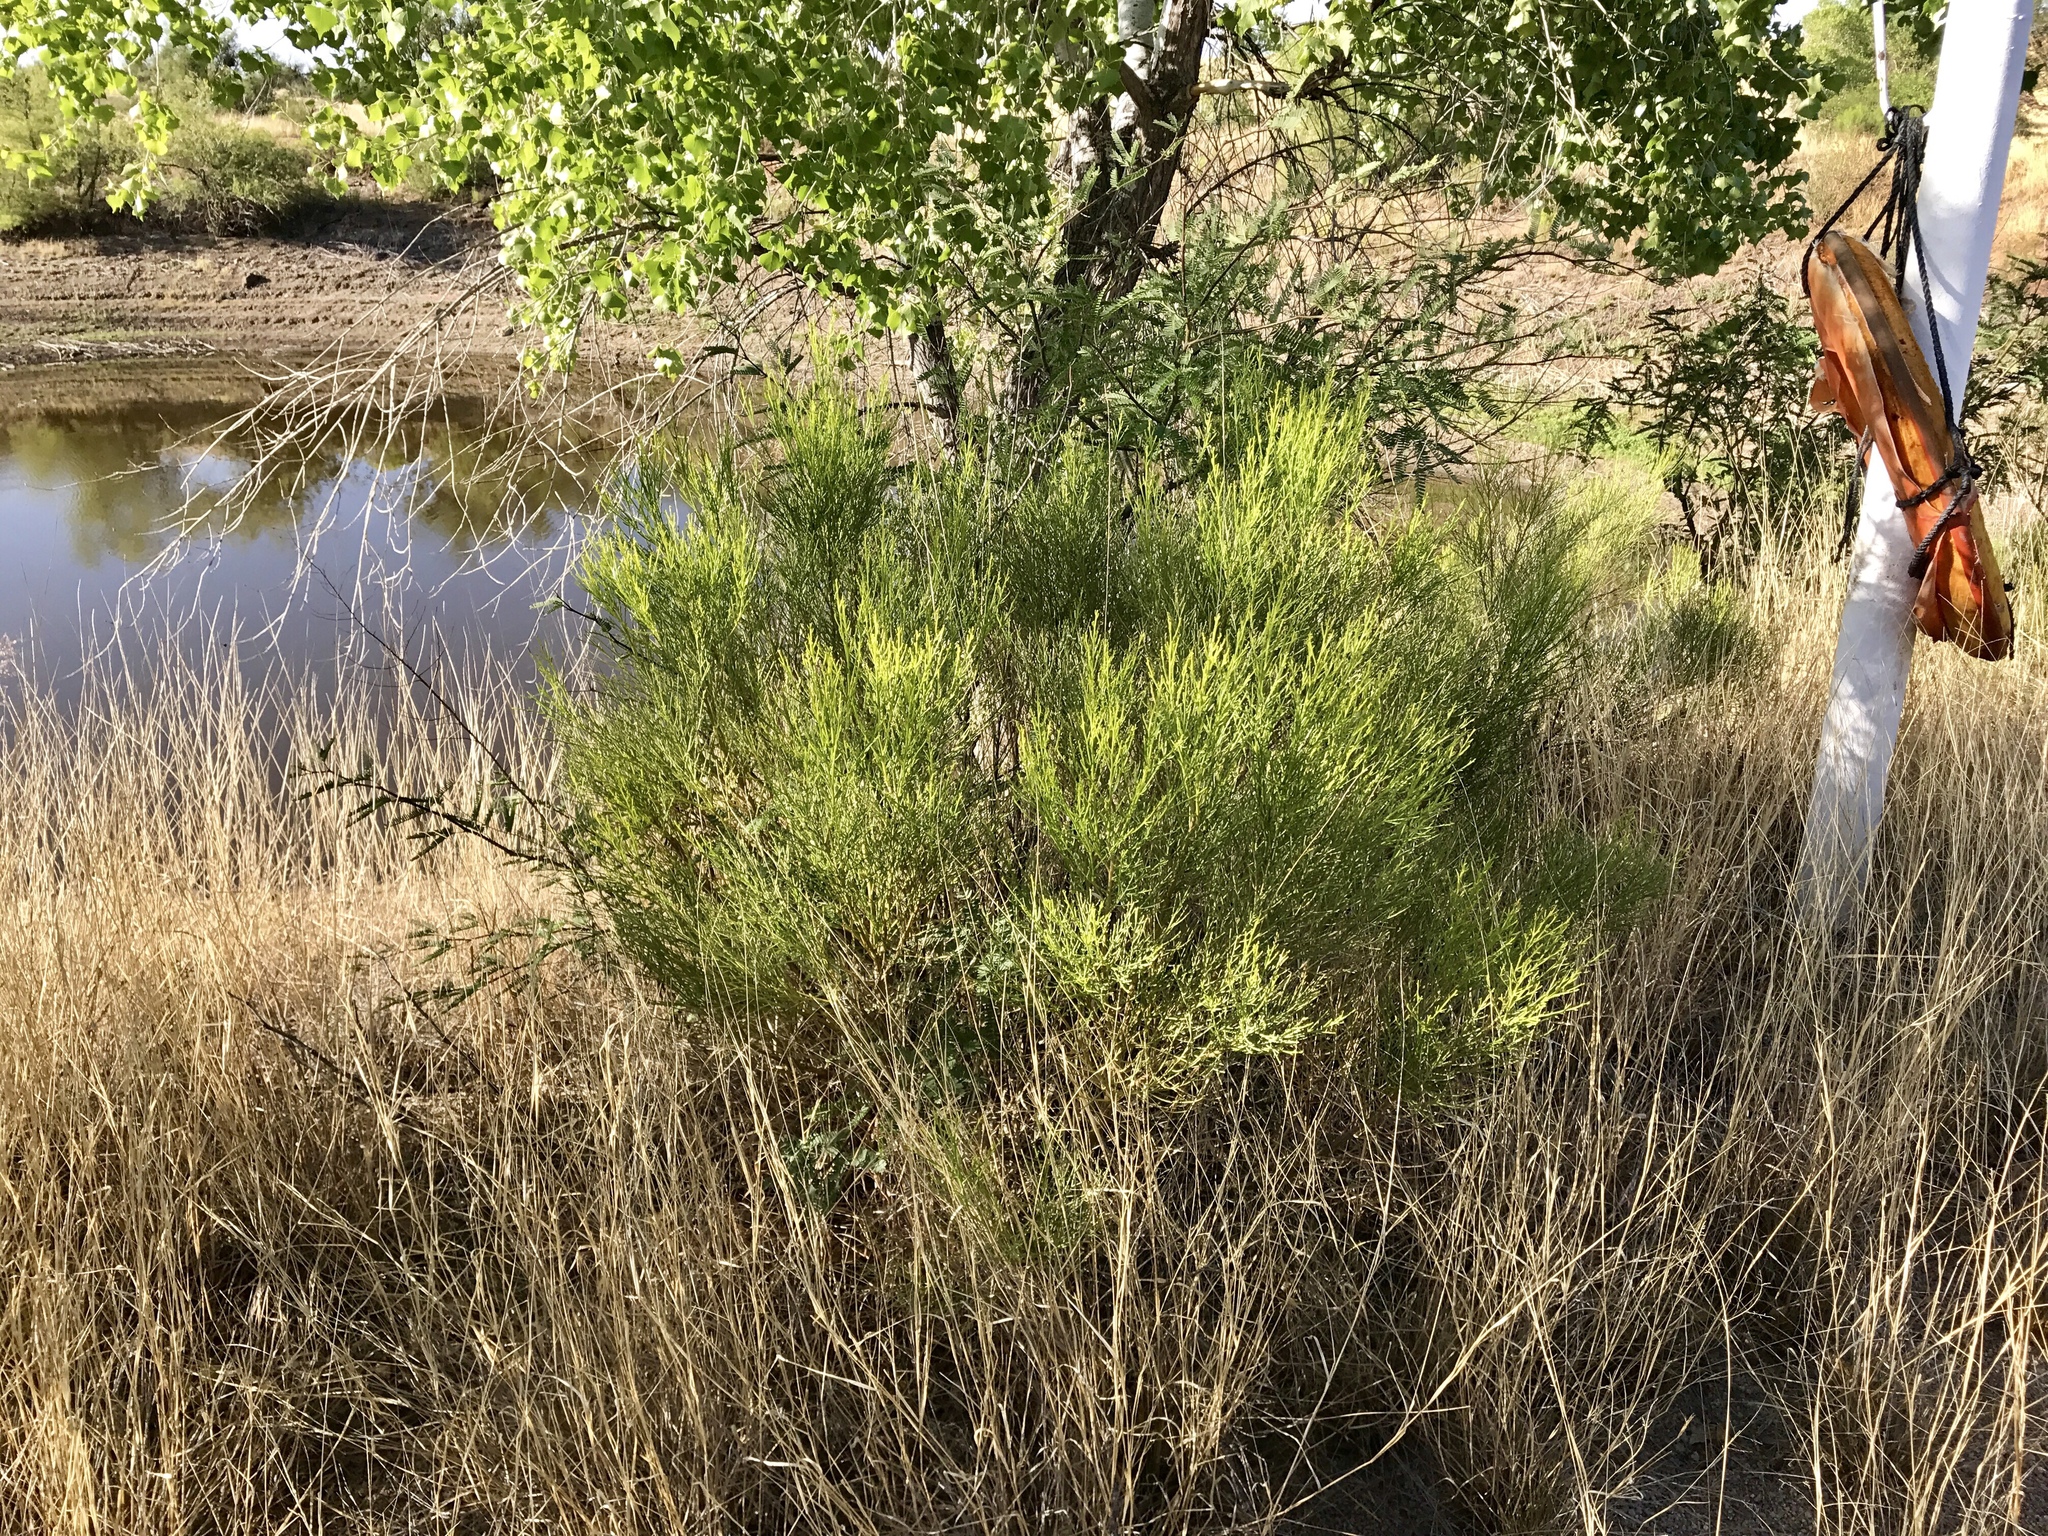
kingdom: Plantae
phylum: Tracheophyta
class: Magnoliopsida
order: Asterales
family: Asteraceae
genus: Baccharis
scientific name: Baccharis sarothroides
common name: Desert-broom
